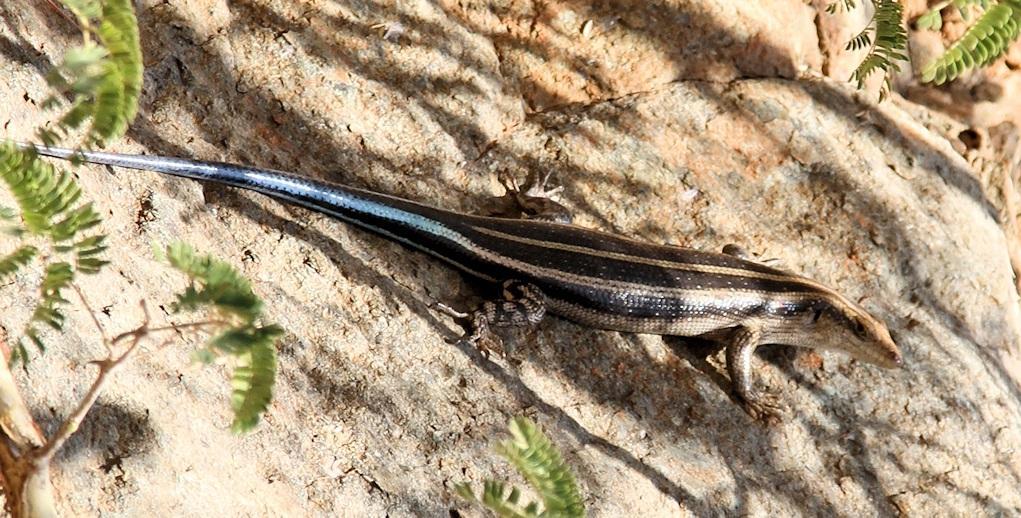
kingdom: Animalia
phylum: Chordata
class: Squamata
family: Scincidae
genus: Trachylepis
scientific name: Trachylepis margaritifera
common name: Rainbow skink
